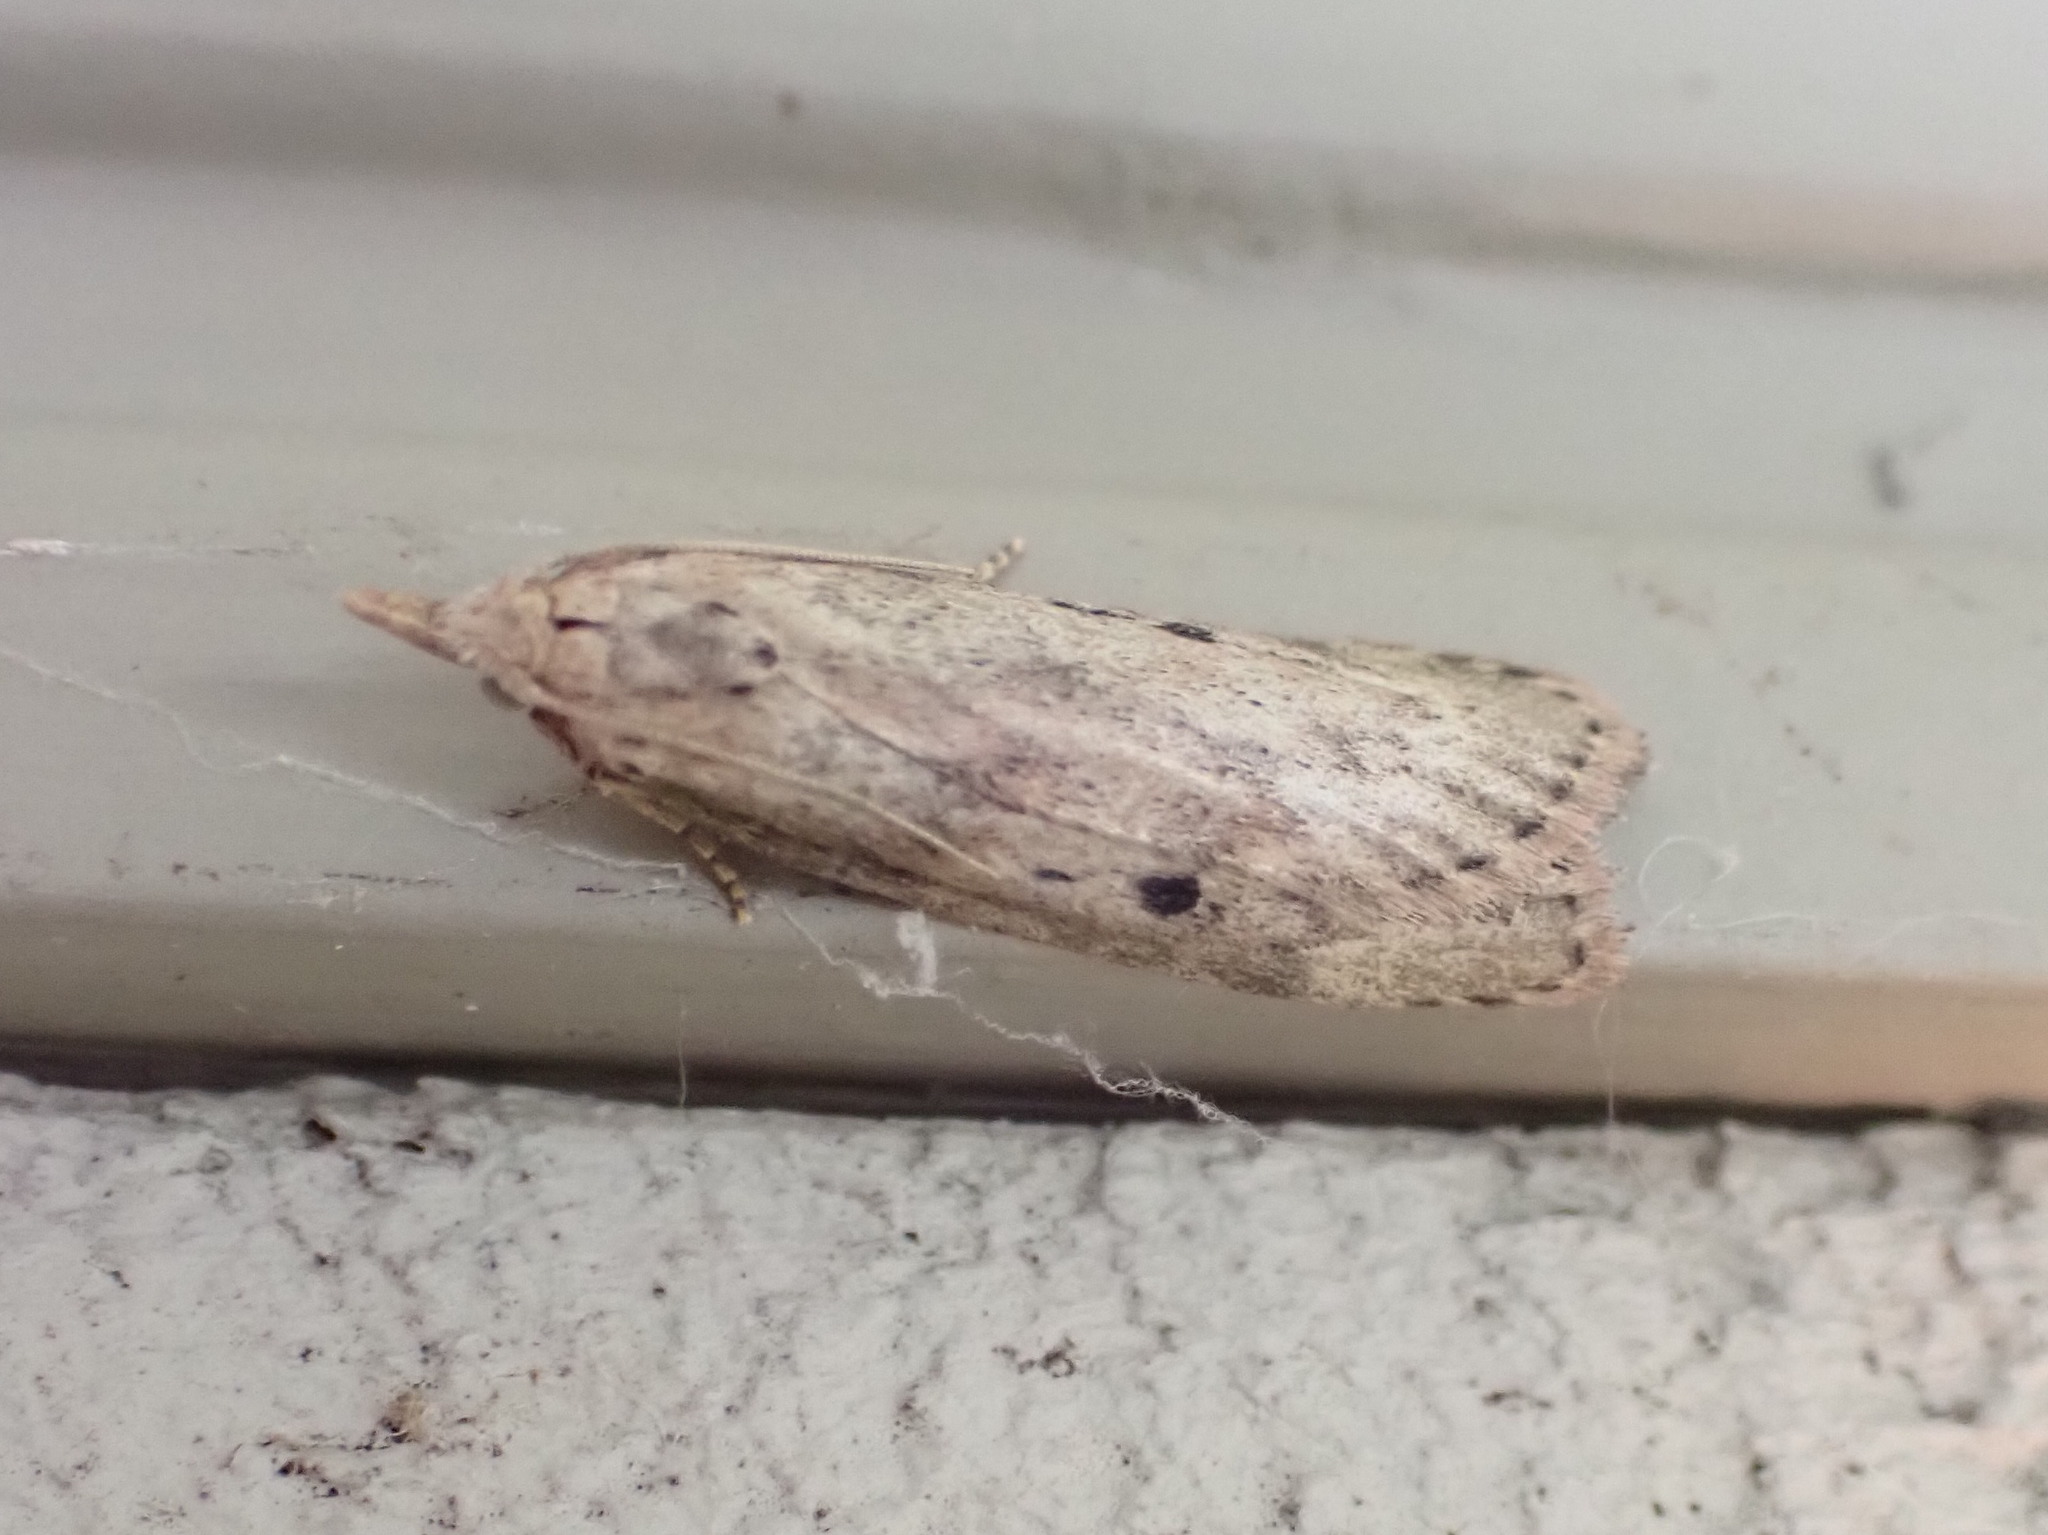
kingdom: Animalia
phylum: Arthropoda
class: Insecta
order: Lepidoptera
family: Pyralidae
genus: Aphomia
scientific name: Aphomia sociella
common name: Bee moth
